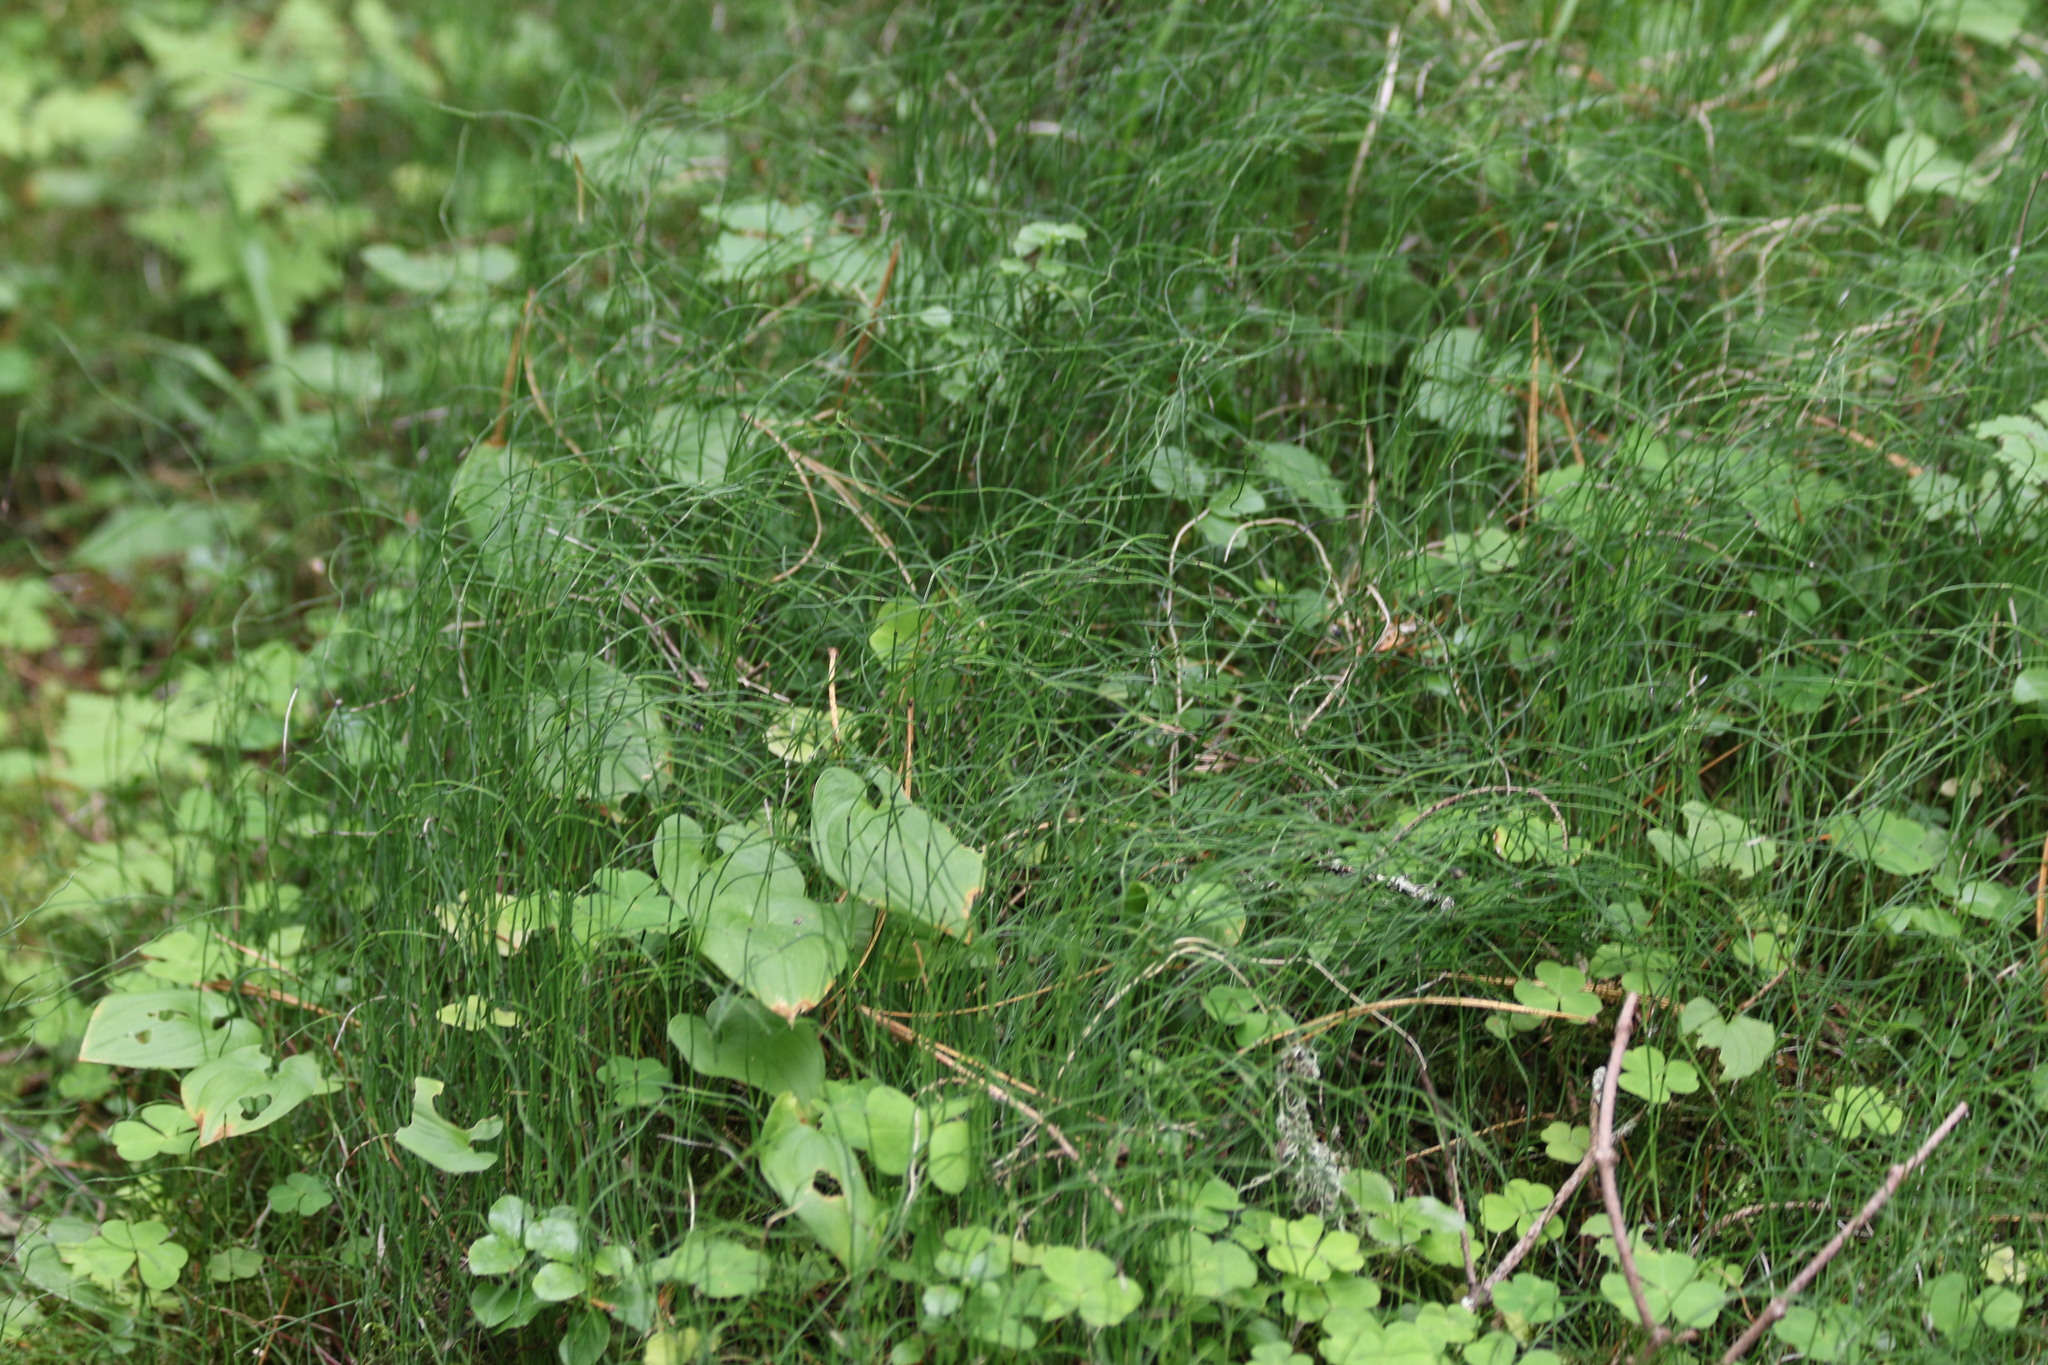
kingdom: Plantae
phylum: Tracheophyta
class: Polypodiopsida
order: Equisetales
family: Equisetaceae
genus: Equisetum
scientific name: Equisetum scirpoides
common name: Delicate horsetail
